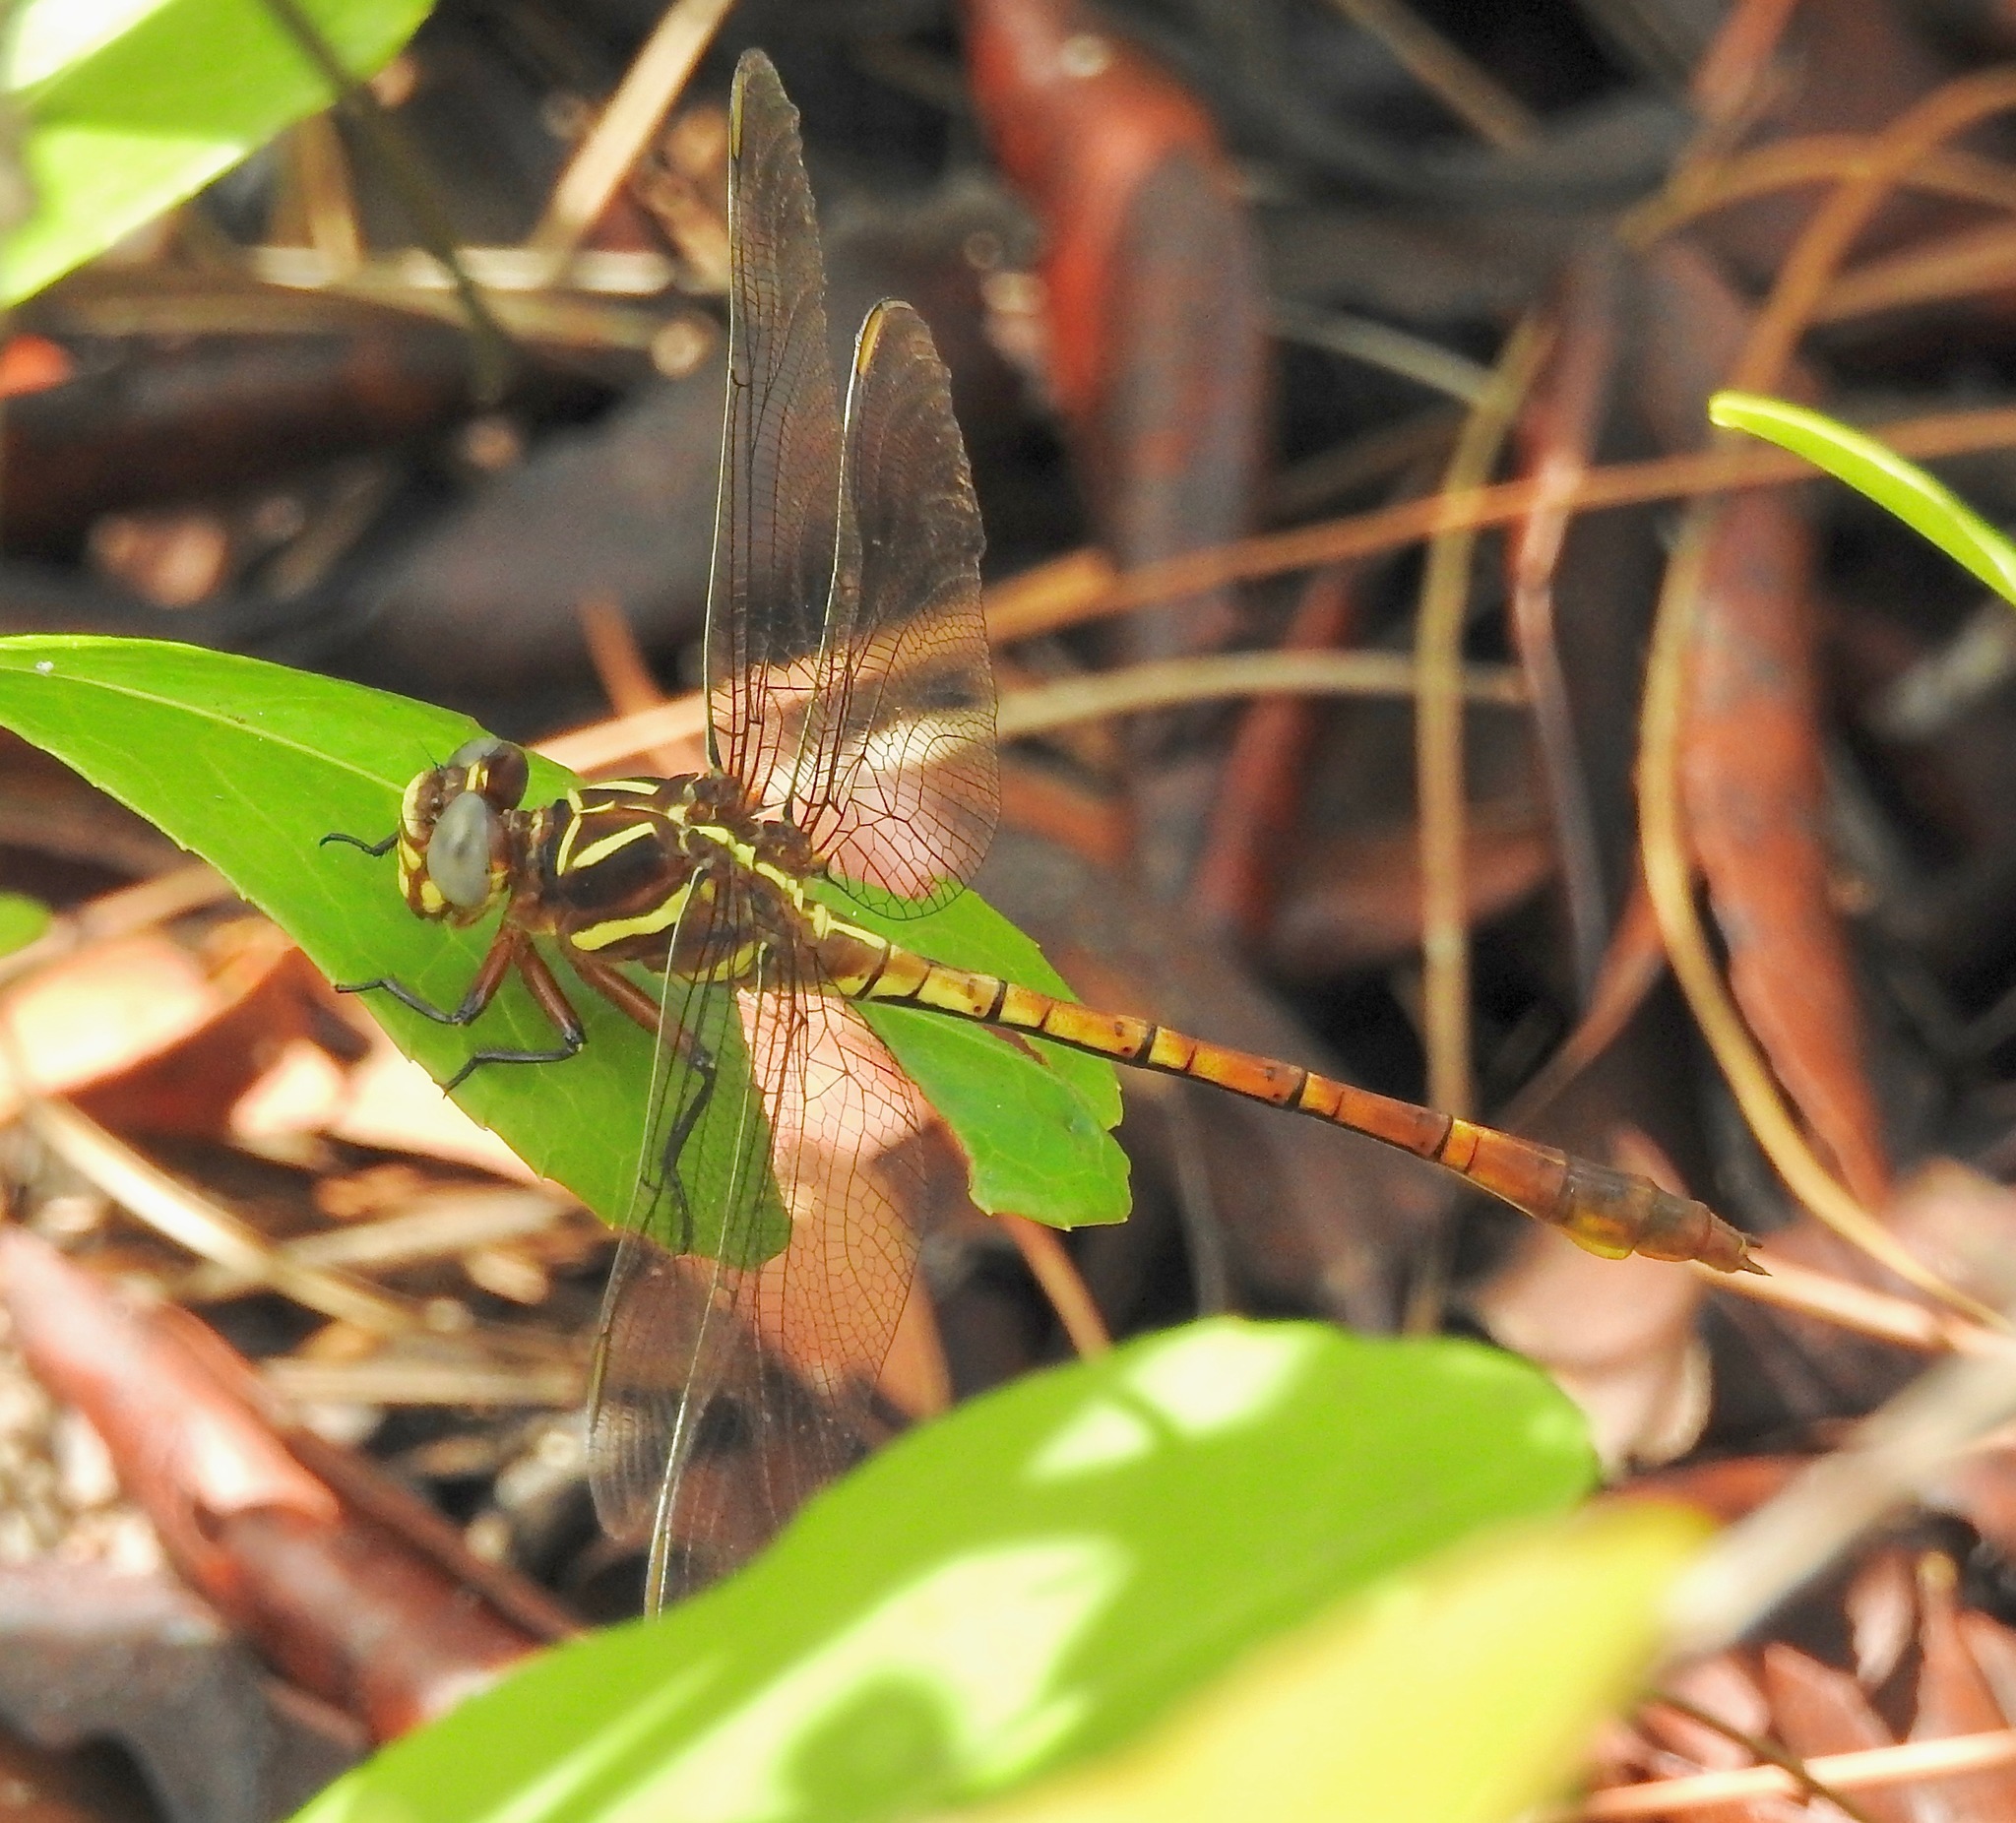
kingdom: Animalia
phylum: Arthropoda
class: Insecta
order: Odonata
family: Gomphidae
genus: Aphylla
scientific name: Aphylla williamsoni
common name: Two-striped forceptail
